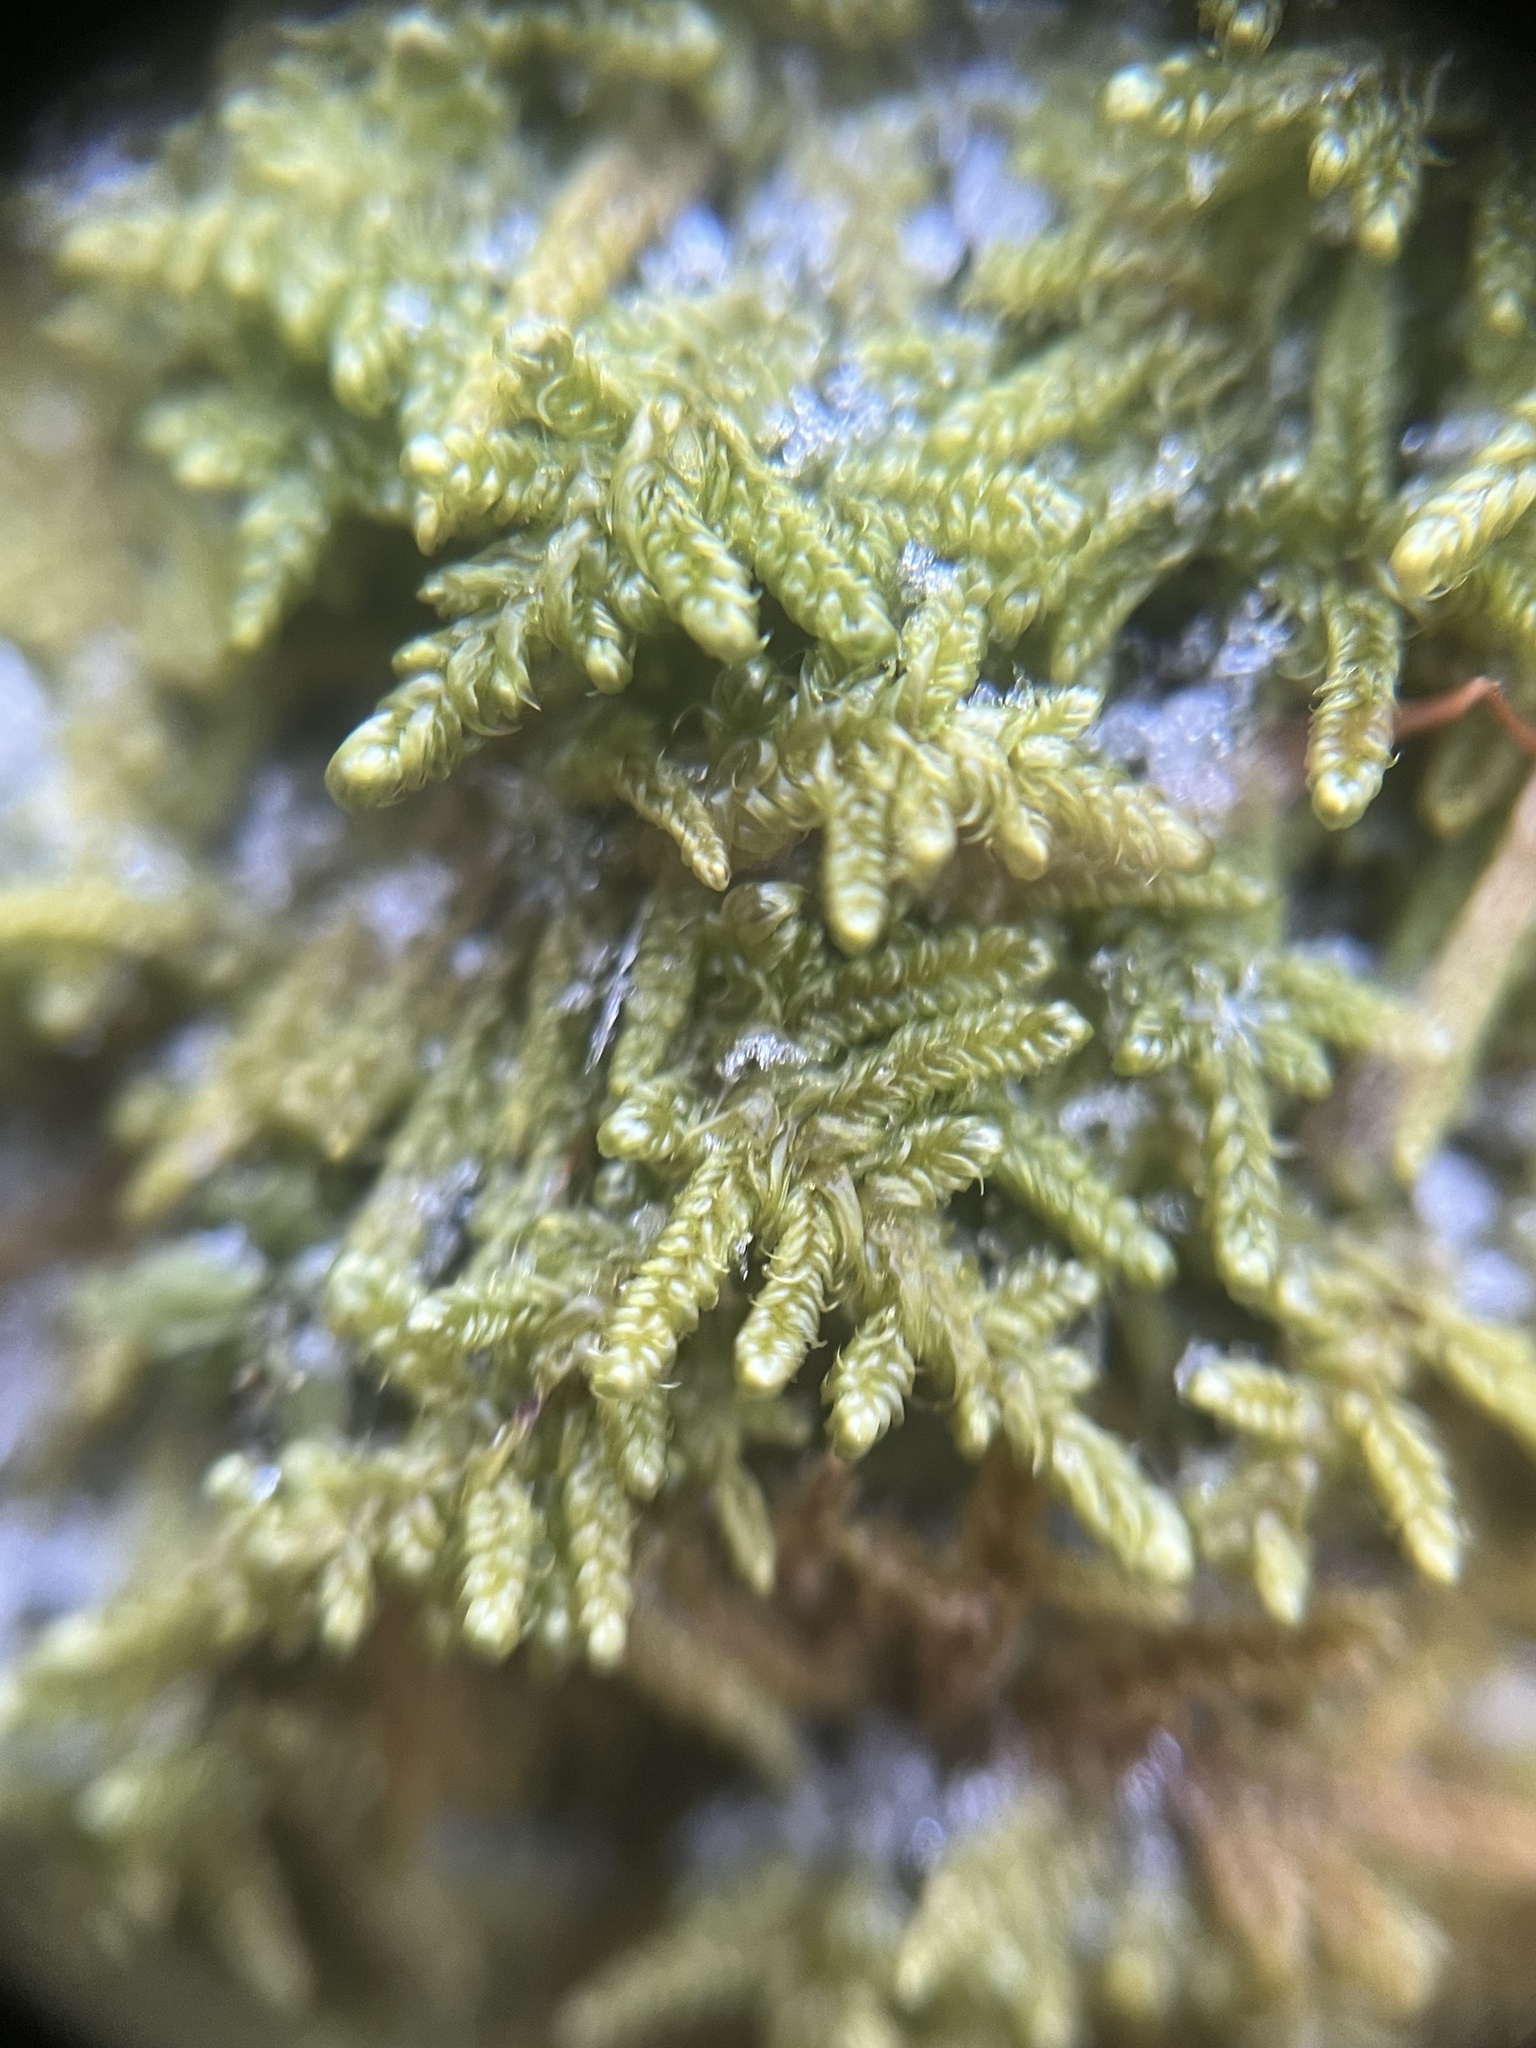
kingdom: Plantae
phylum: Bryophyta
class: Bryopsida
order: Hypnales
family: Callicladiaceae
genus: Callicladium
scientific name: Callicladium imponens
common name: Brocade moss
